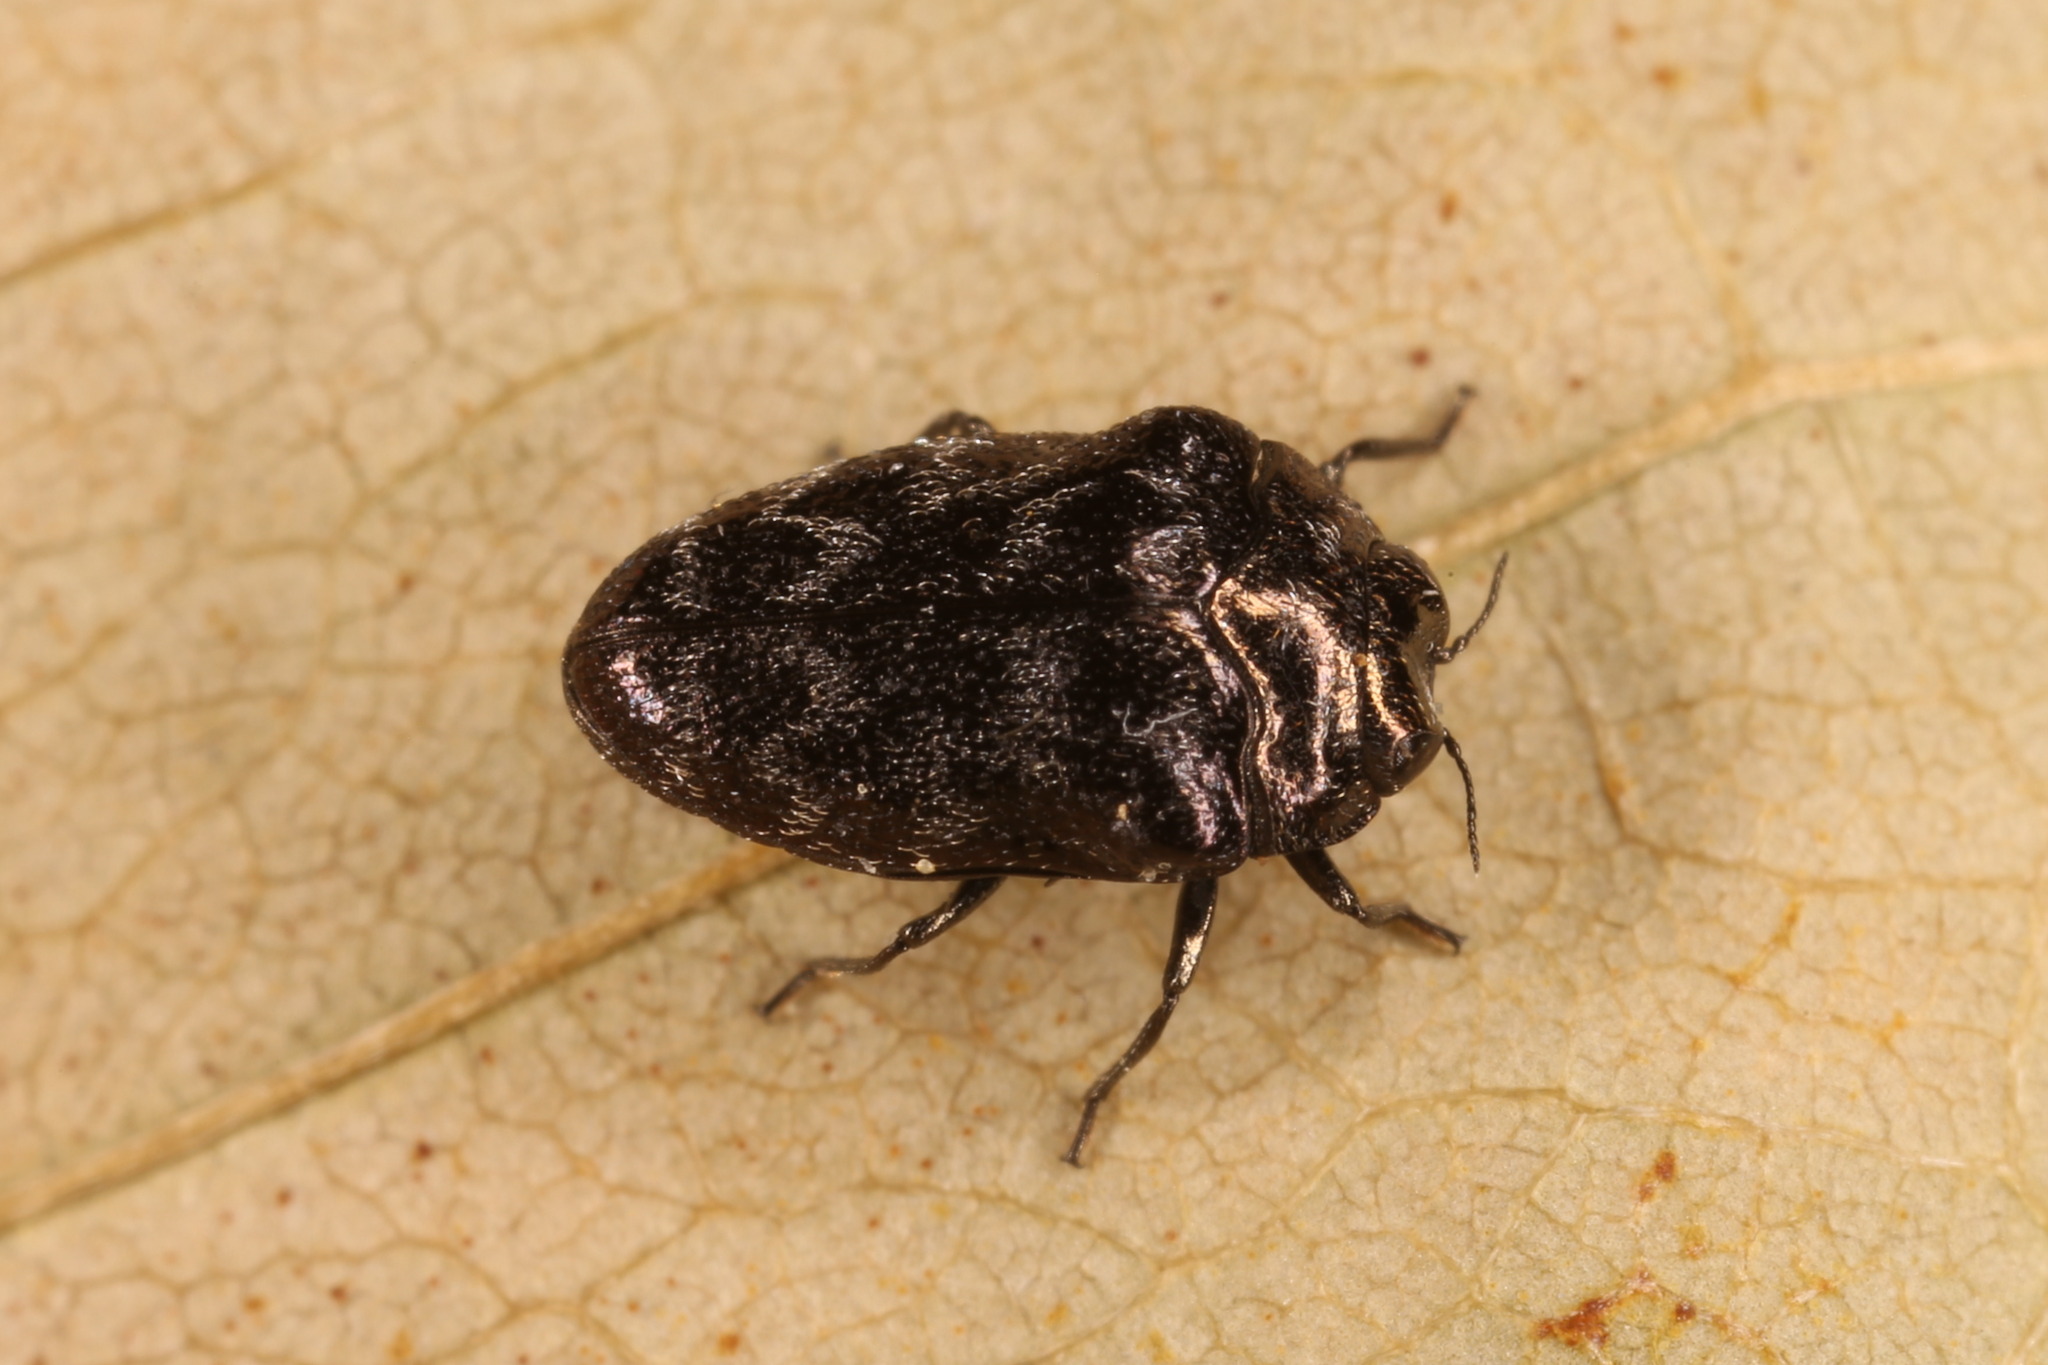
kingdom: Animalia
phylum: Arthropoda
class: Insecta
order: Coleoptera
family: Buprestidae
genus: Trachys
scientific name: Trachys minutus
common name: Metallic wood-boring beetle
